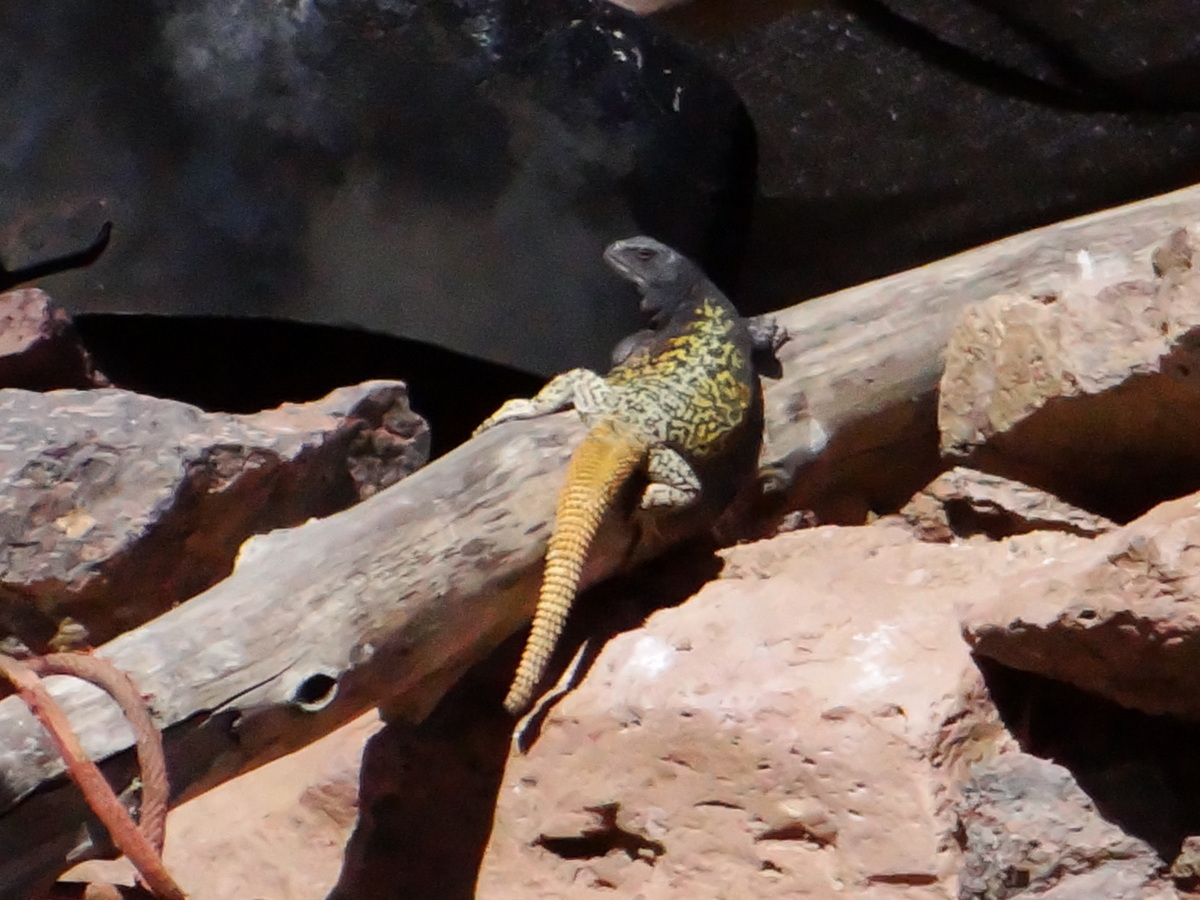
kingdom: Animalia
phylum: Chordata
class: Squamata
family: Liolaemidae
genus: Phymaturus
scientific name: Phymaturus verdugo
